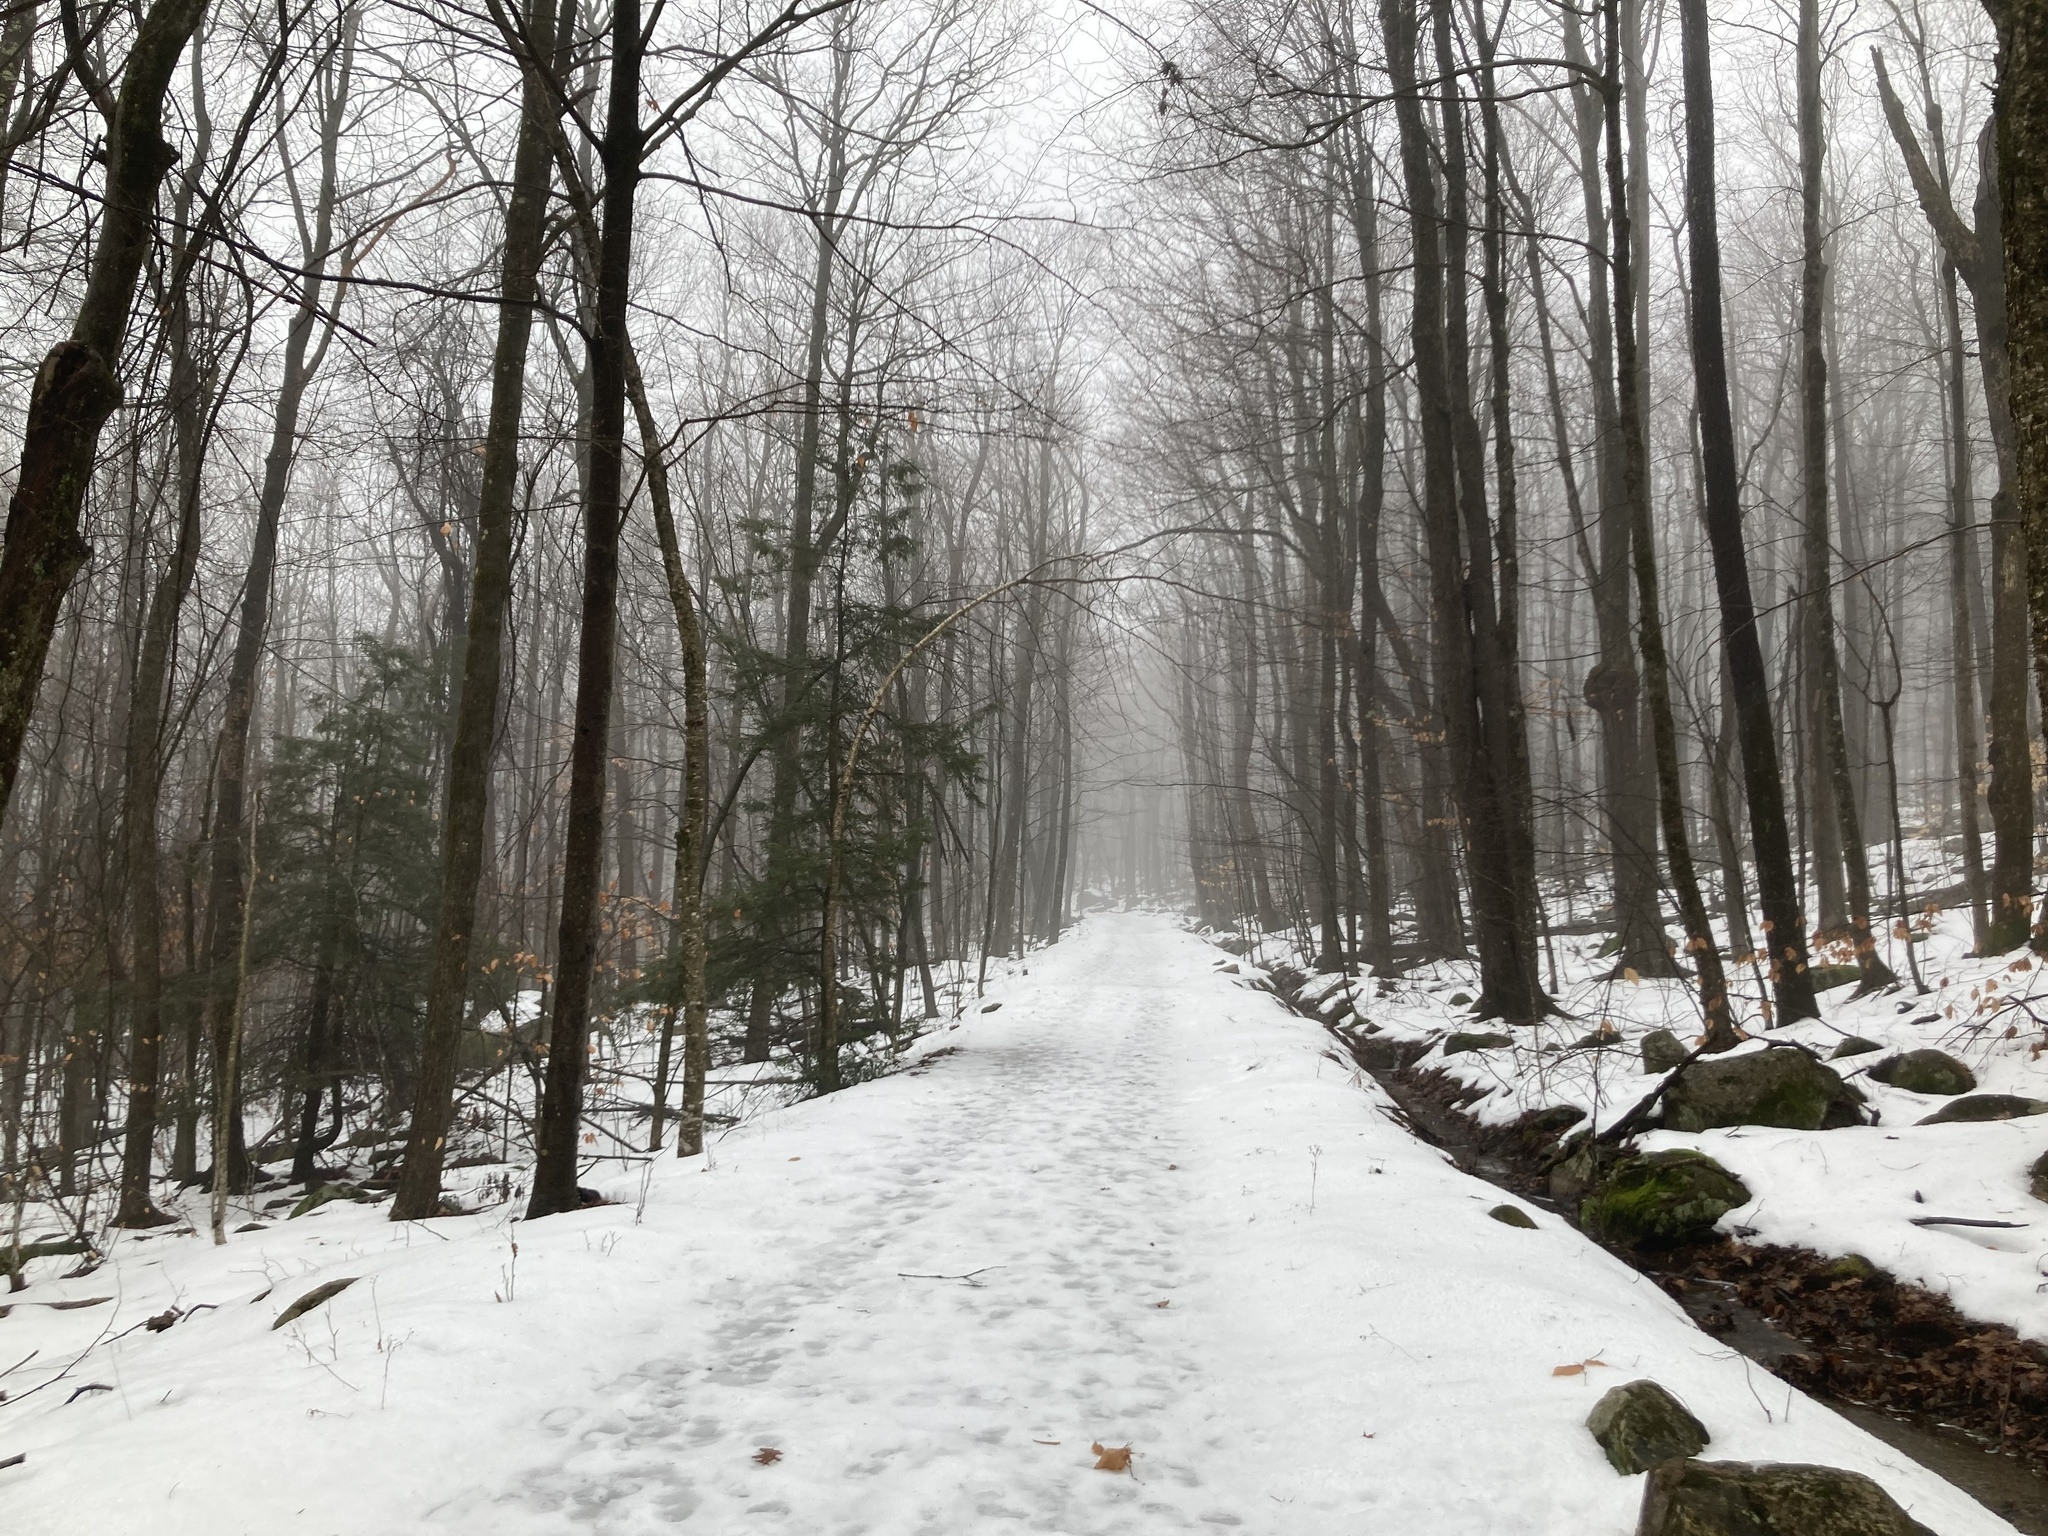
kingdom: Plantae
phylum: Tracheophyta
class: Polypodiopsida
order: Polypodiales
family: Dryopteridaceae
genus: Polystichum
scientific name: Polystichum acrostichoides
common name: Christmas fern
